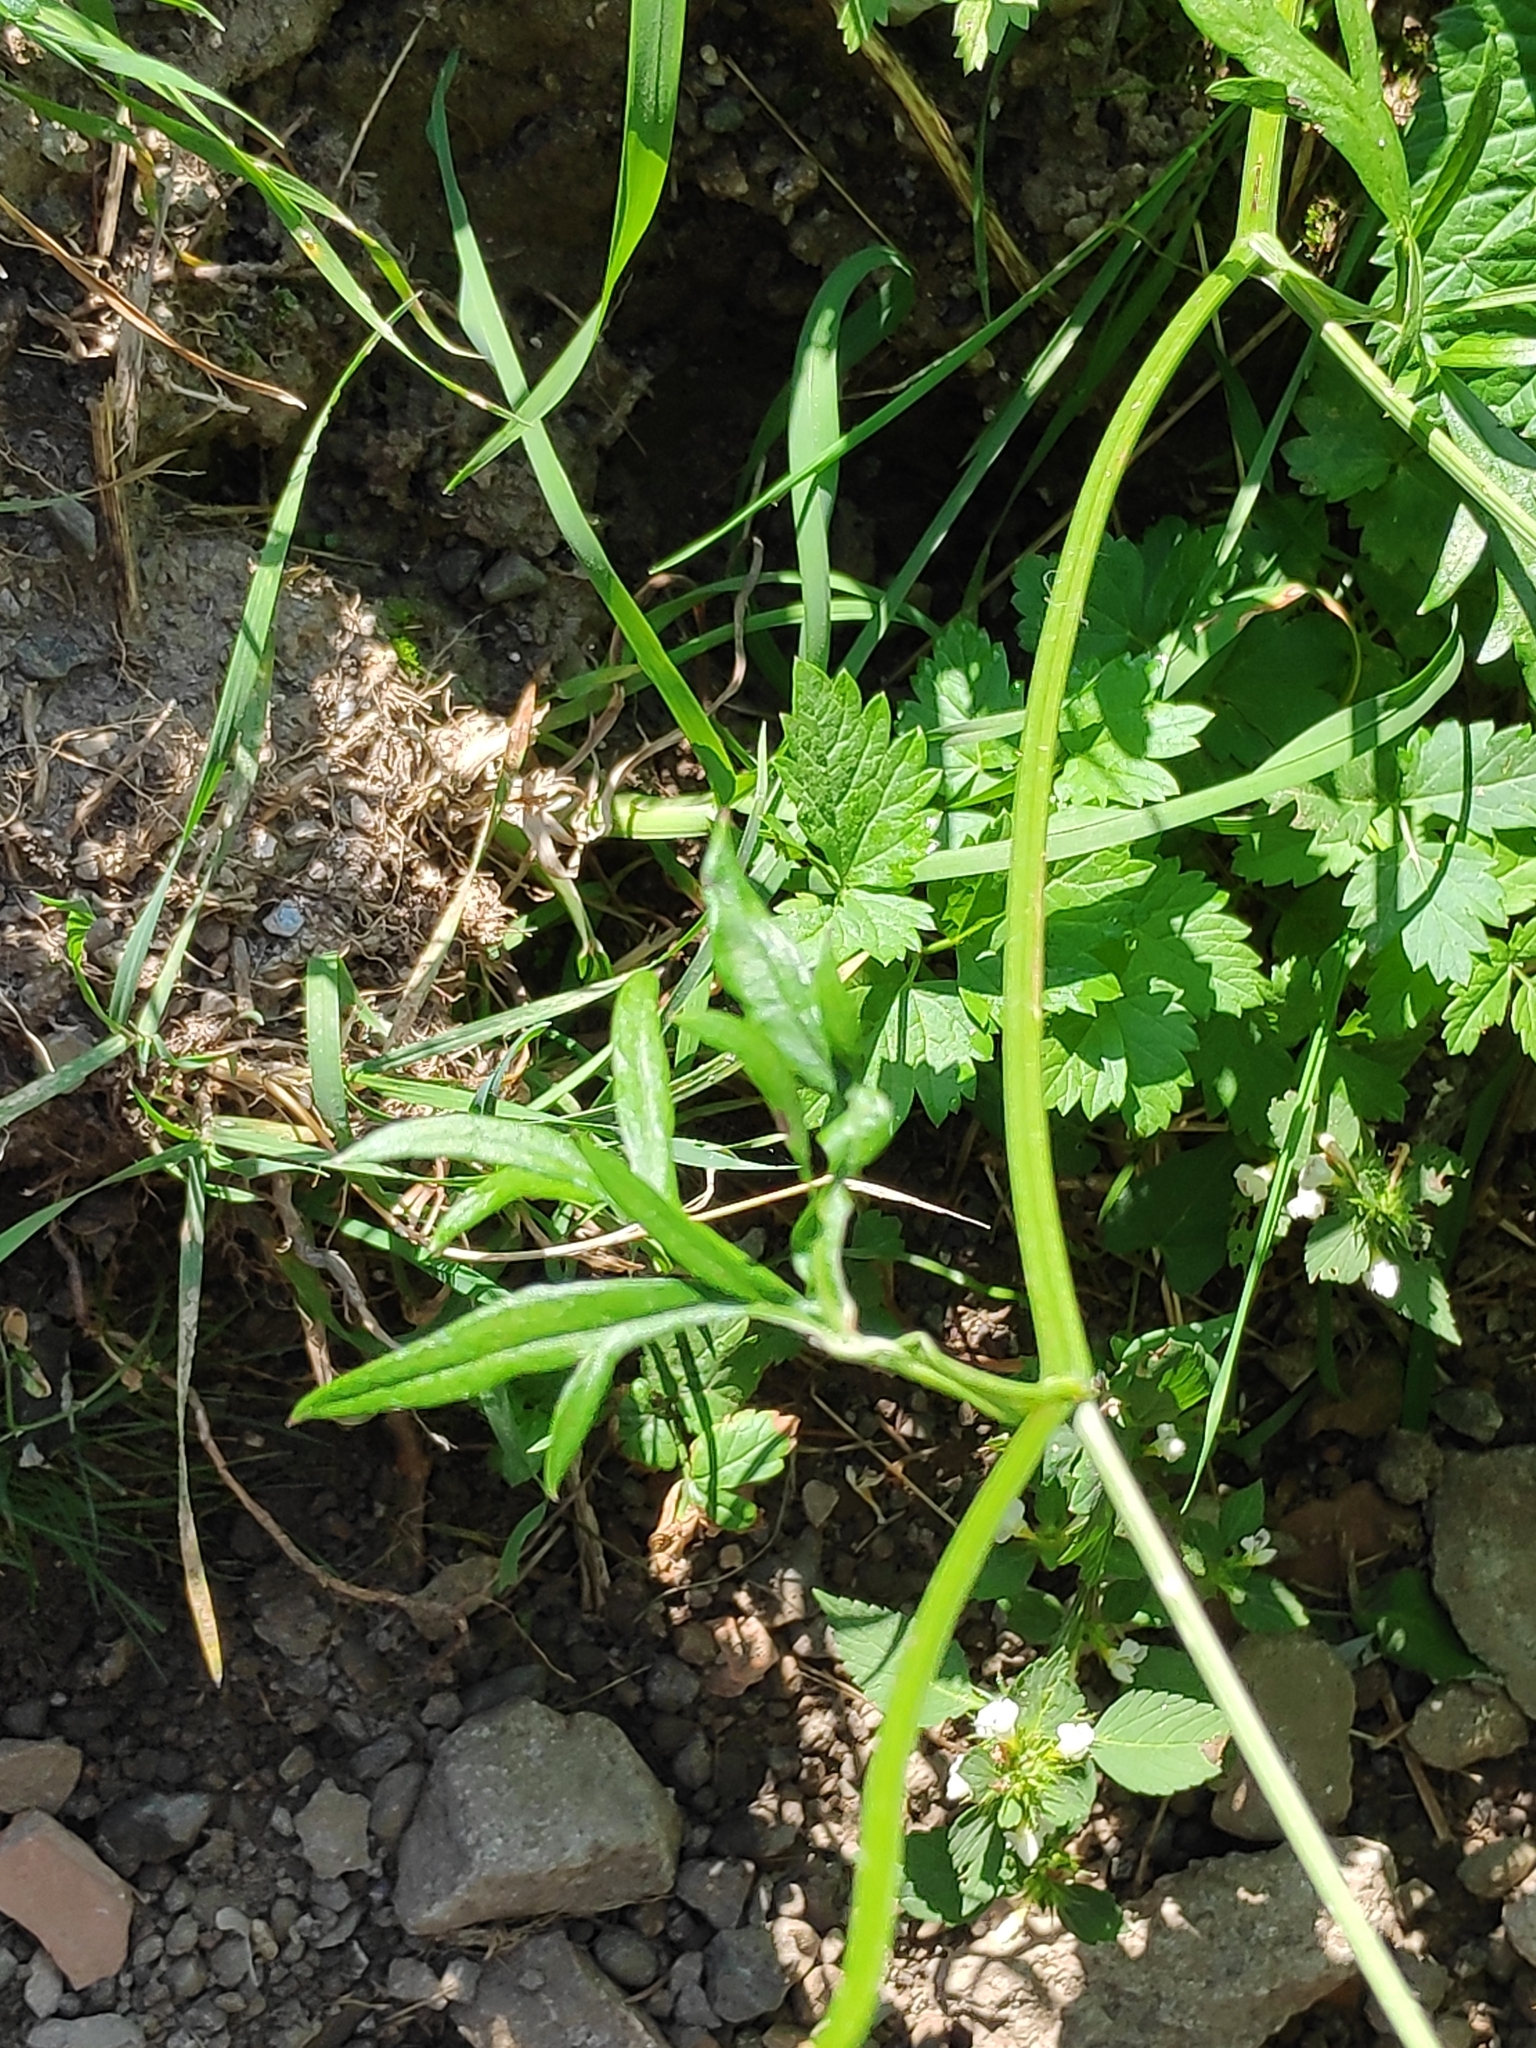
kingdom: Plantae
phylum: Tracheophyta
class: Magnoliopsida
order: Apiales
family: Apiaceae
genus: Pimpinella
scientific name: Pimpinella major
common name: Greater burnet-saxifrage
